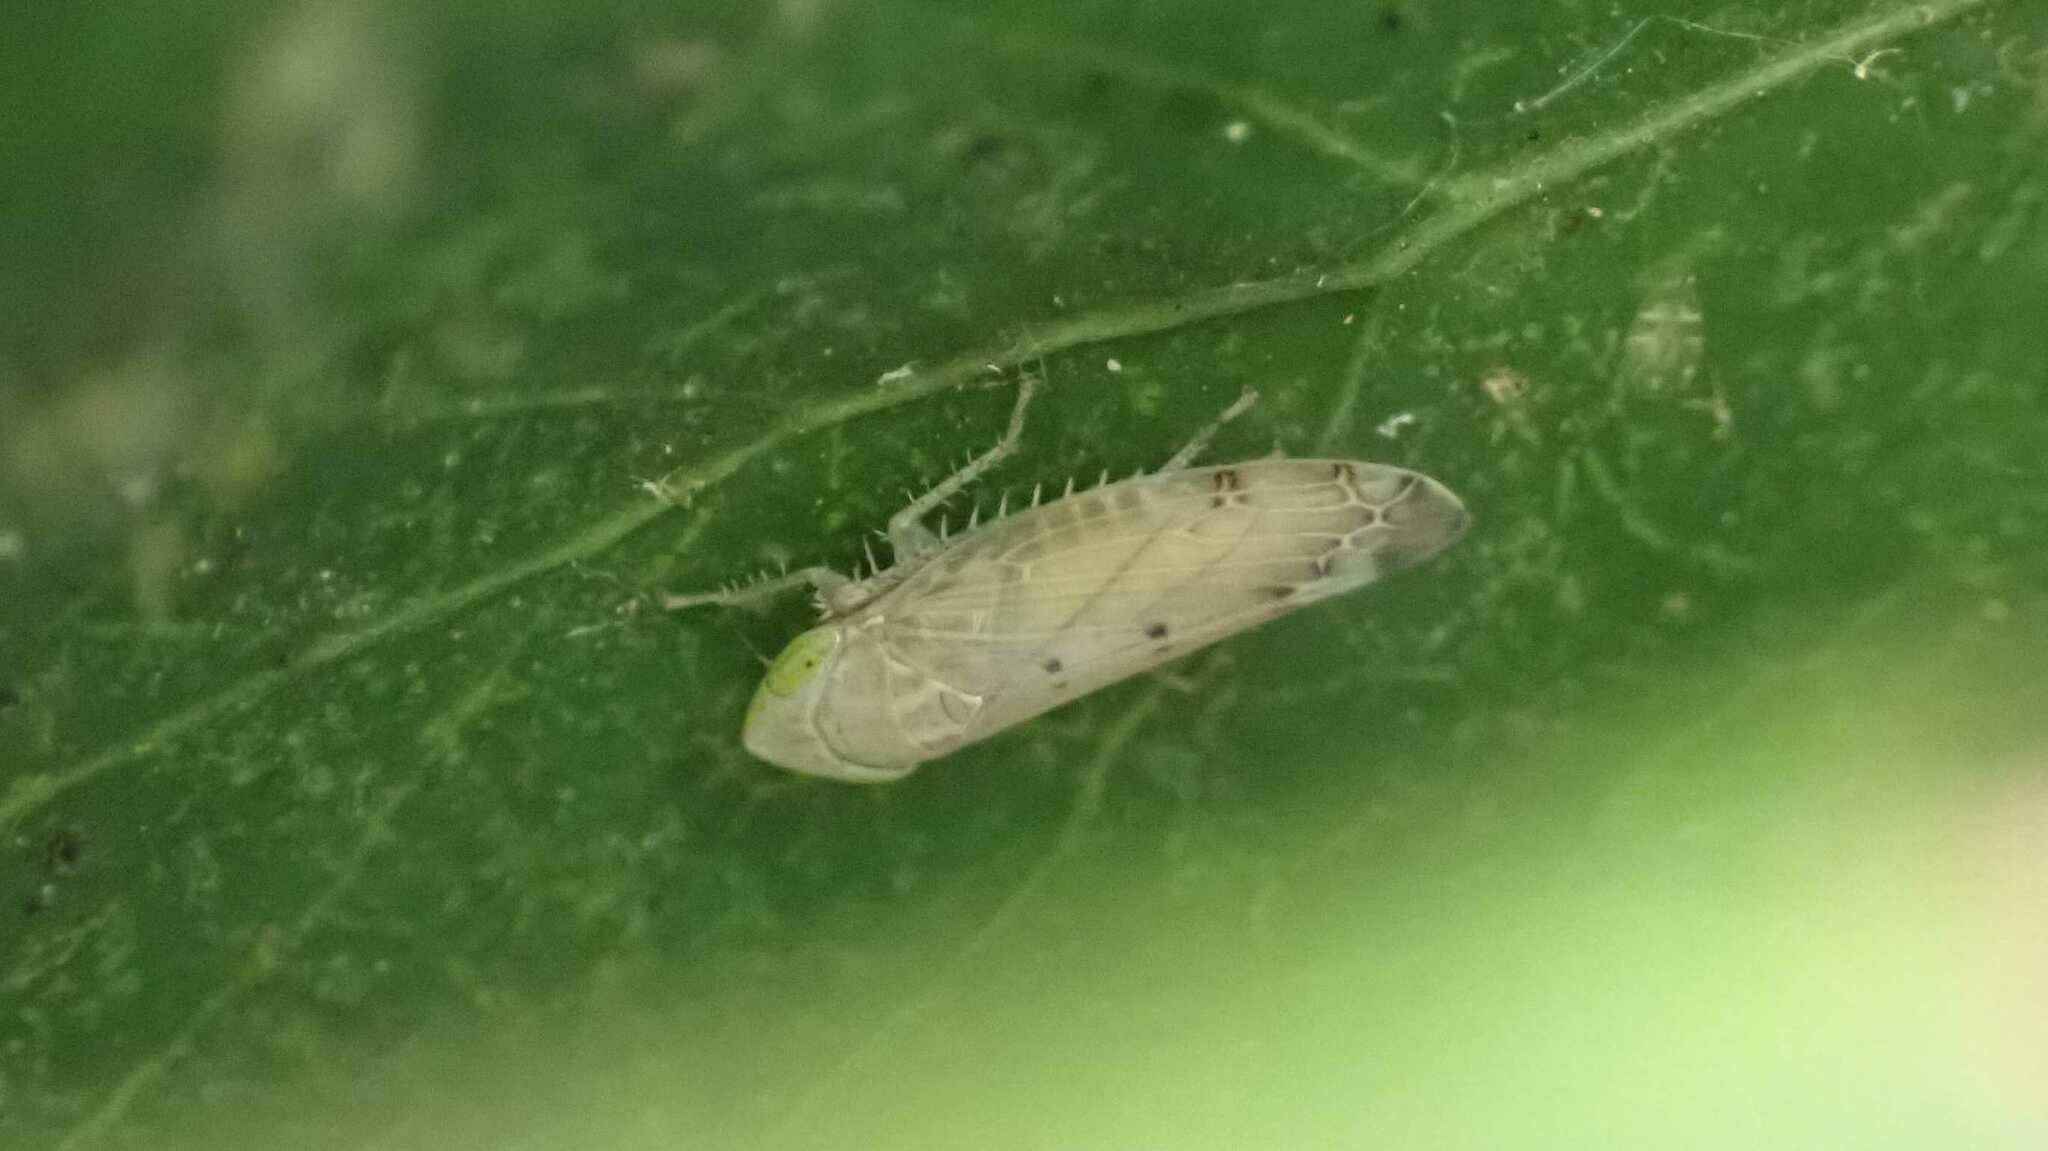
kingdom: Animalia
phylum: Arthropoda
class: Insecta
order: Hemiptera
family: Cicadellidae
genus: Synophropsis
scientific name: Synophropsis lauri
